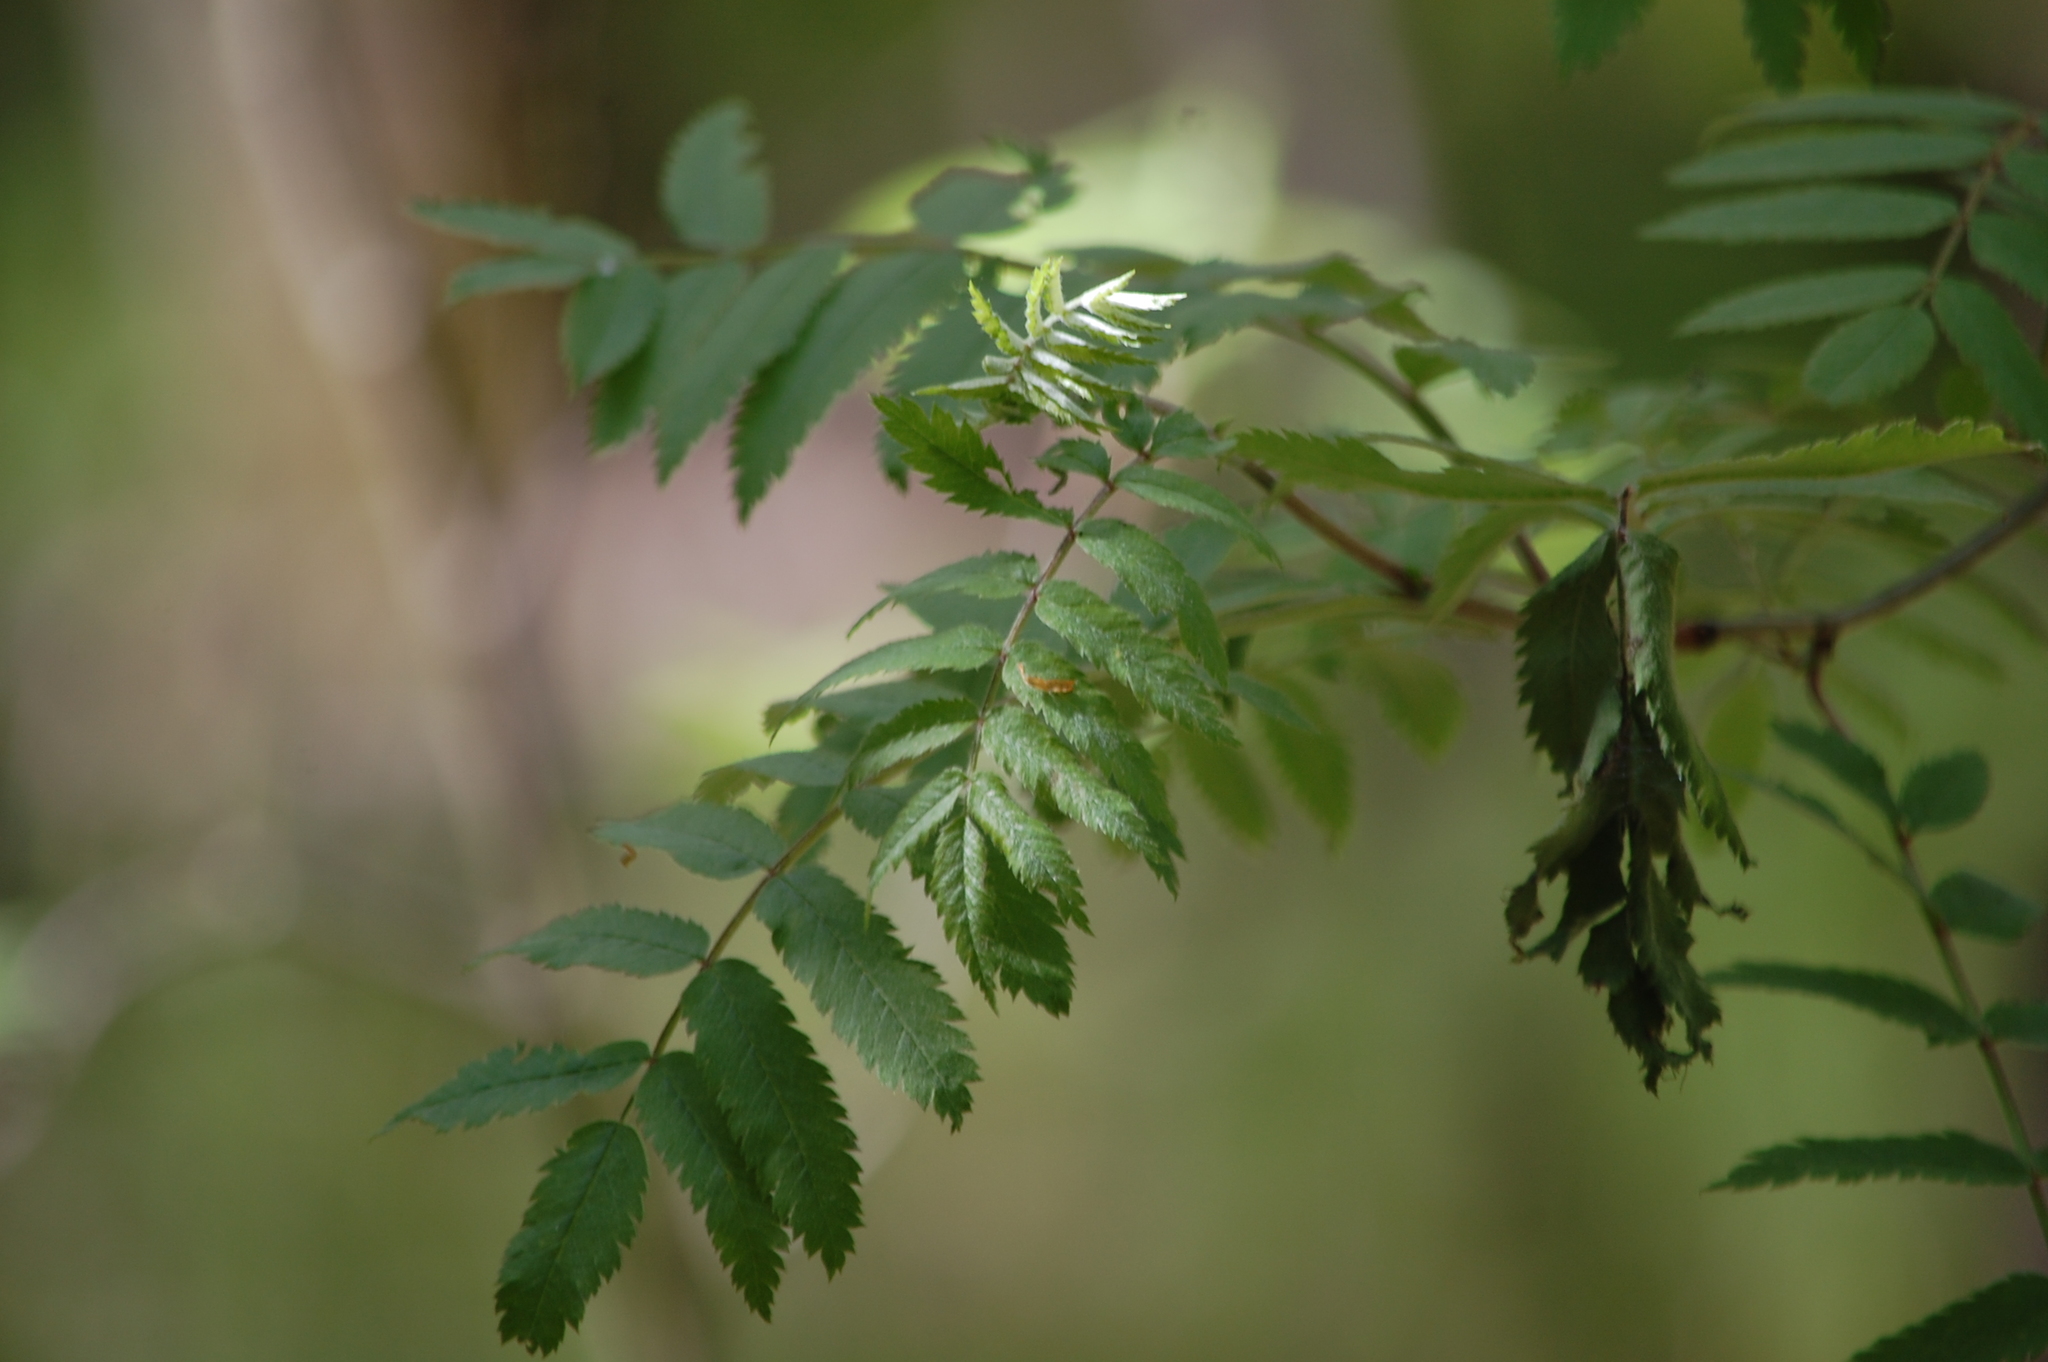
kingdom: Plantae
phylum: Tracheophyta
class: Magnoliopsida
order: Rosales
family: Rosaceae
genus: Sorbus
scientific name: Sorbus aucuparia
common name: Rowan
